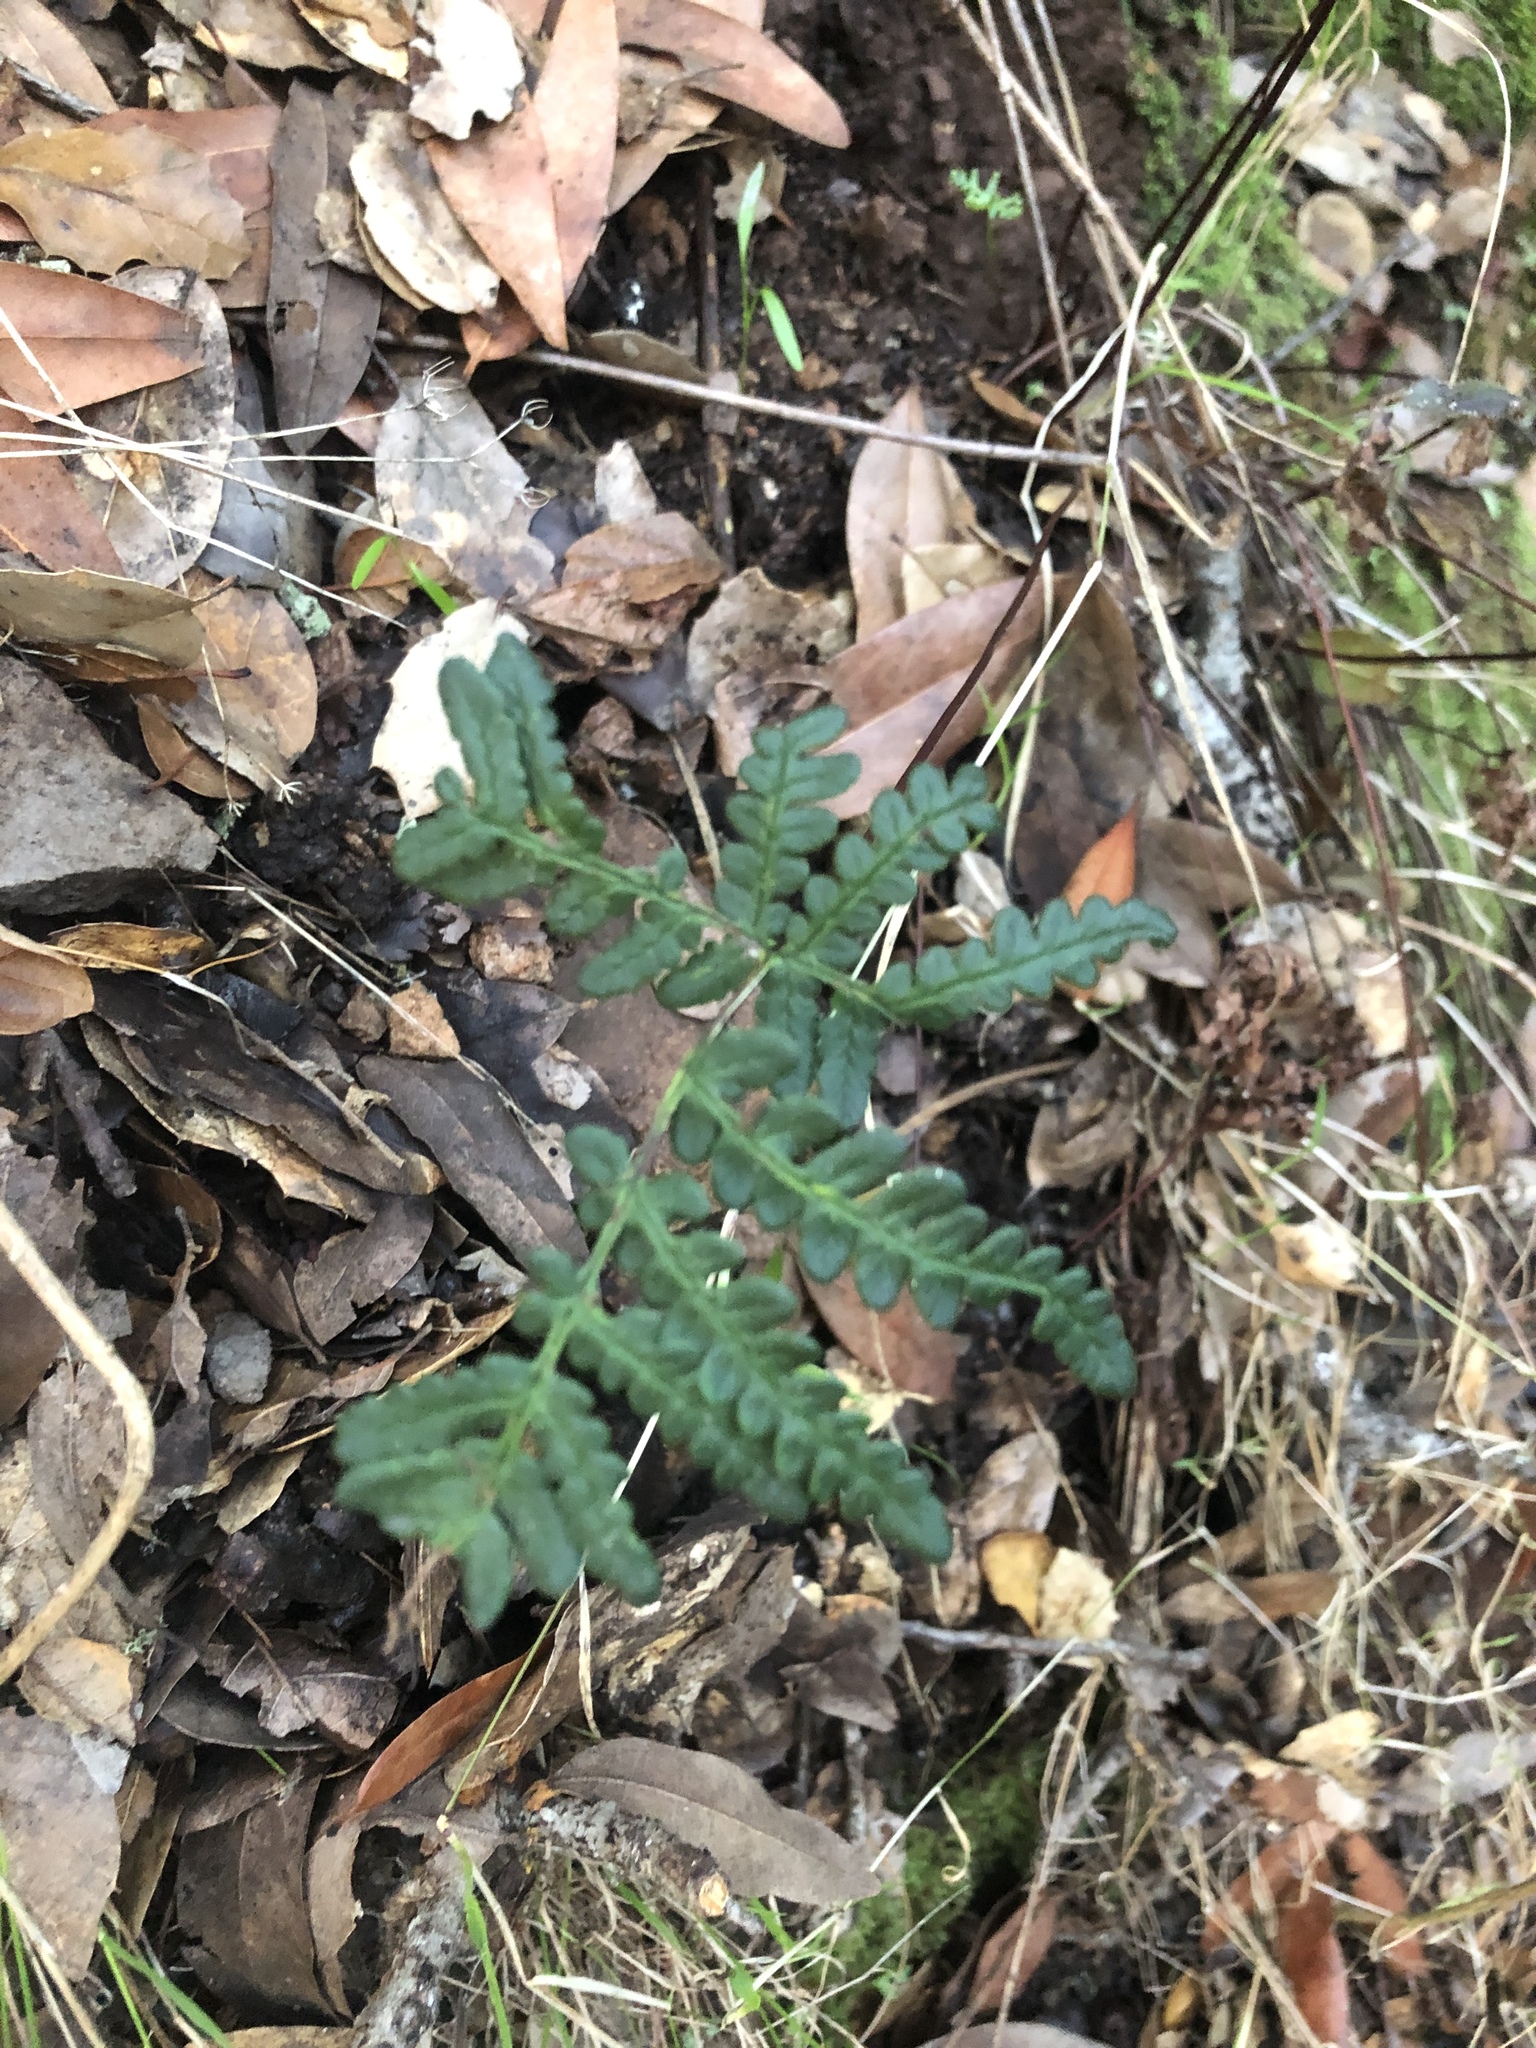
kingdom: Plantae
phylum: Tracheophyta
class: Polypodiopsida
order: Polypodiales
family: Pteridaceae
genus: Pentagramma
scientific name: Pentagramma triangularis
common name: Gold fern
